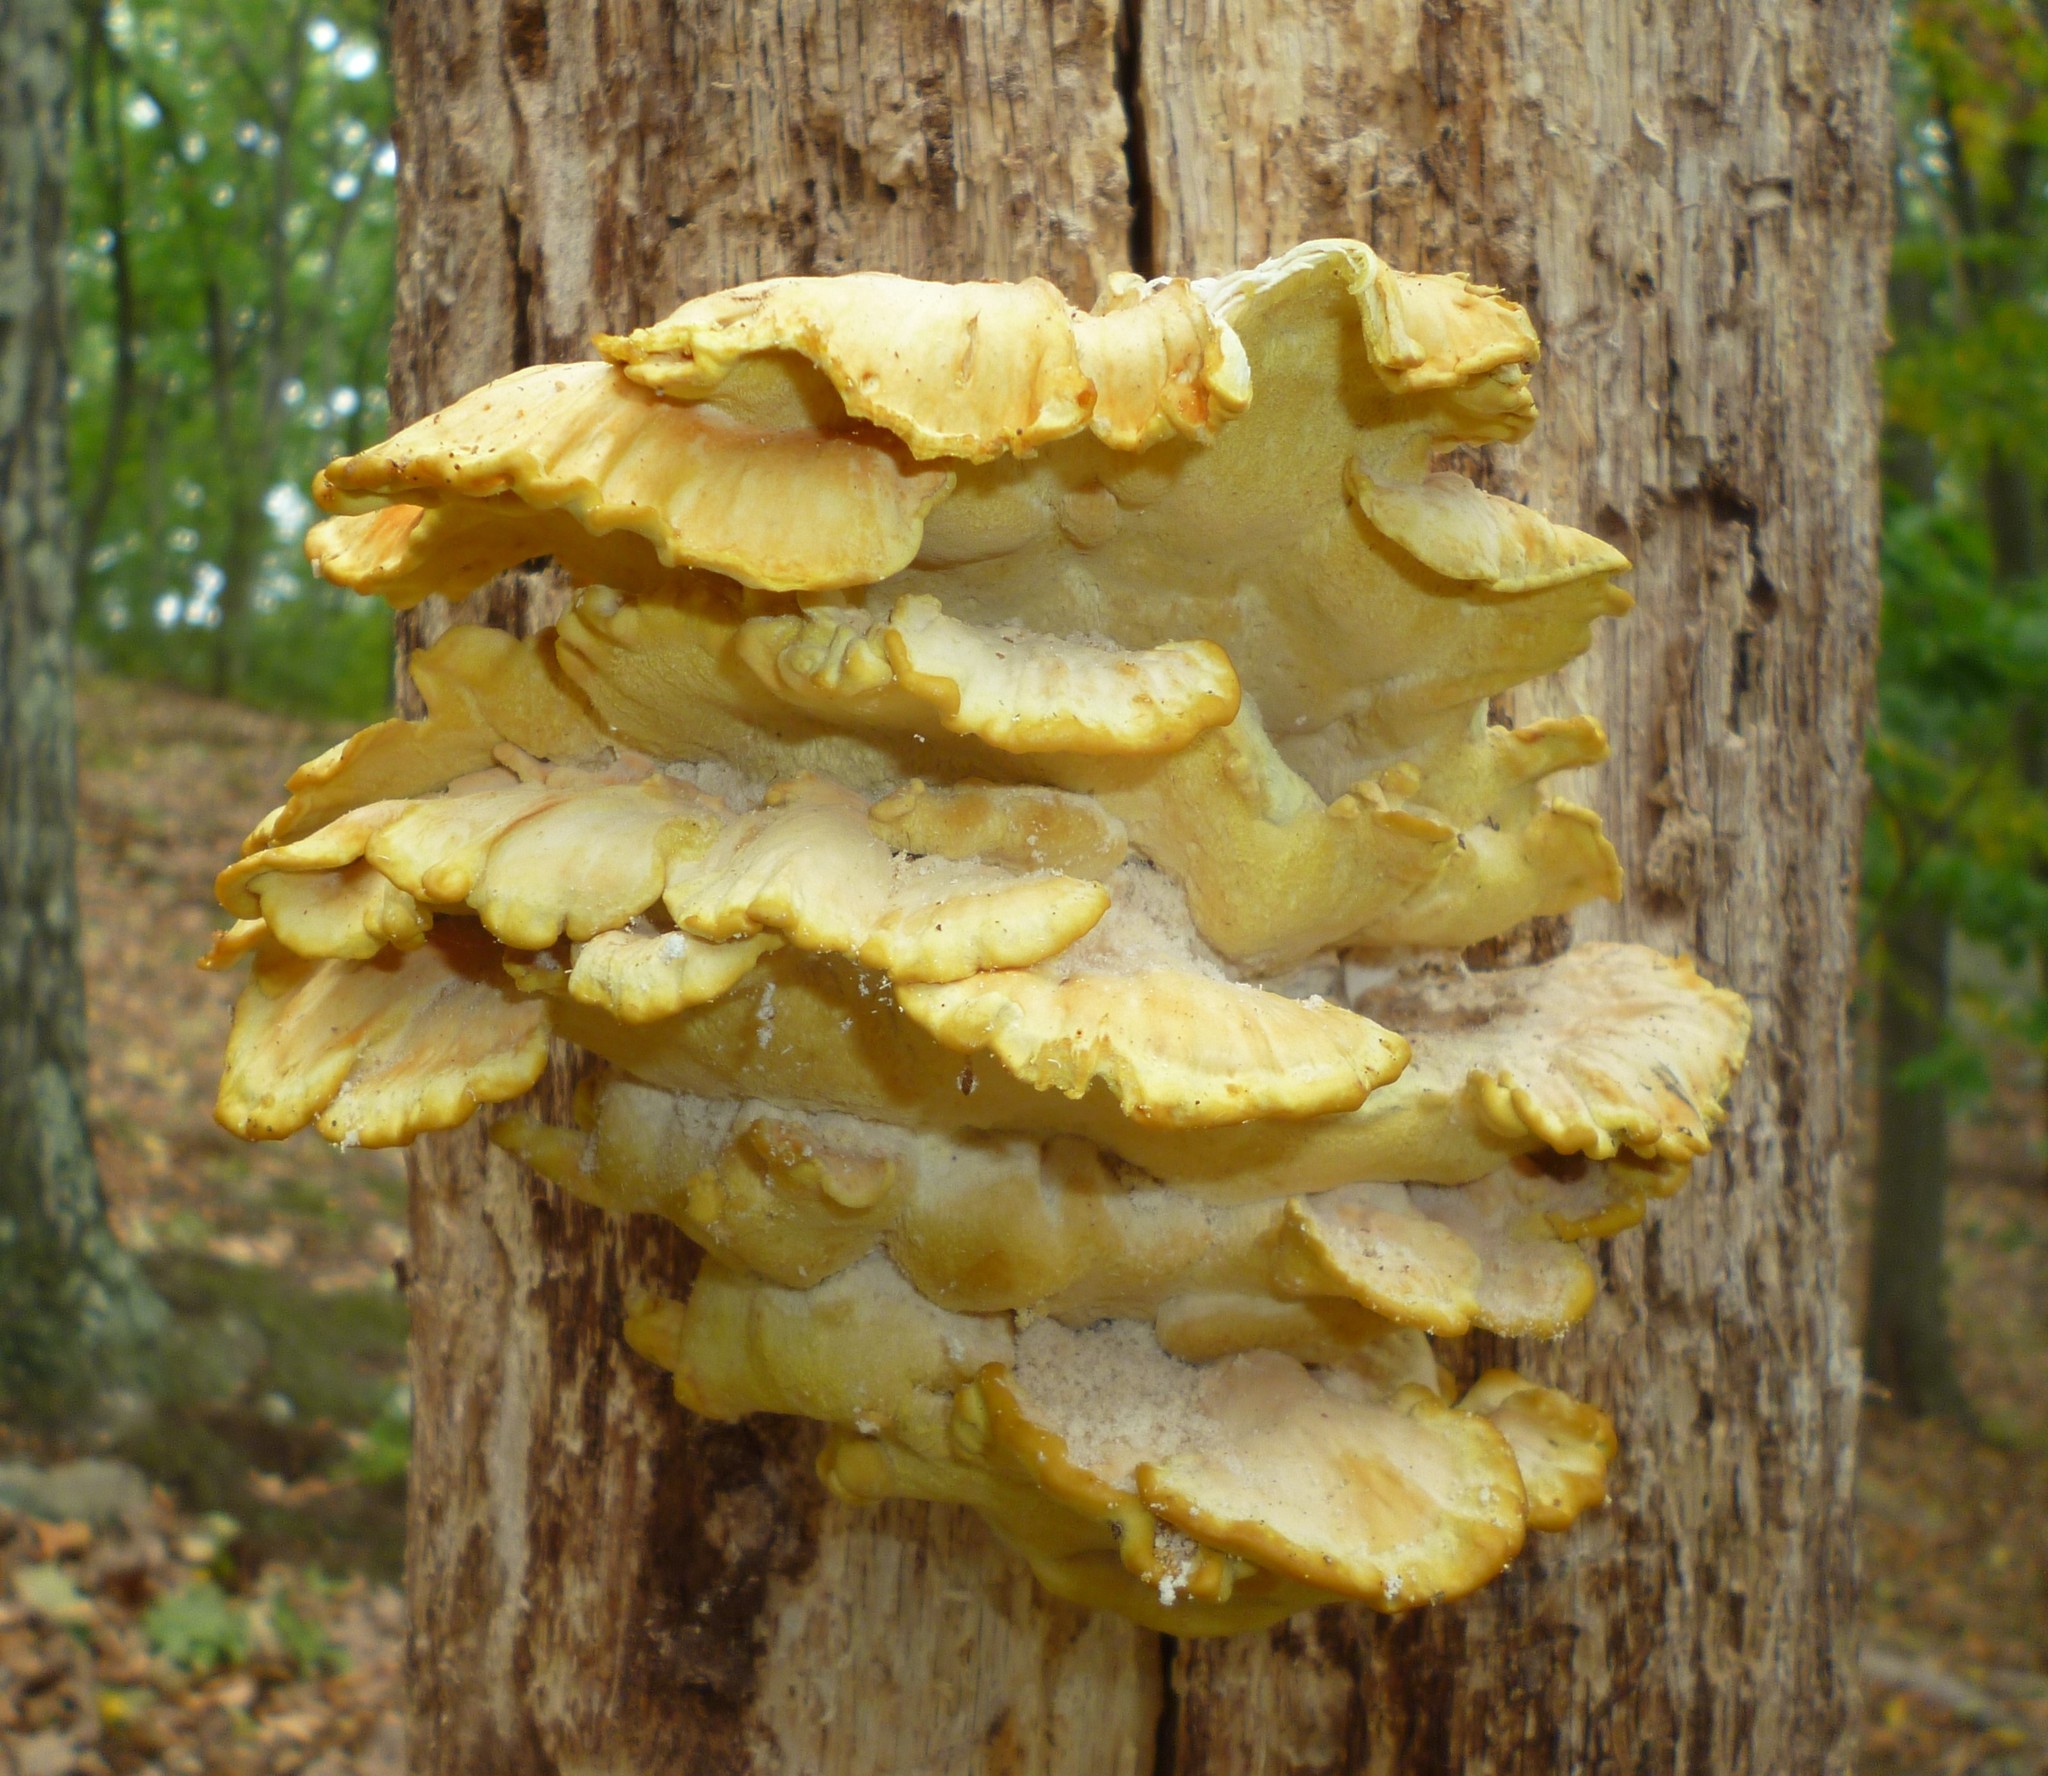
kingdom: Fungi
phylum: Basidiomycota
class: Agaricomycetes
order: Polyporales
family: Laetiporaceae
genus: Laetiporus
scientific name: Laetiporus sulphureus
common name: Chicken of the woods
